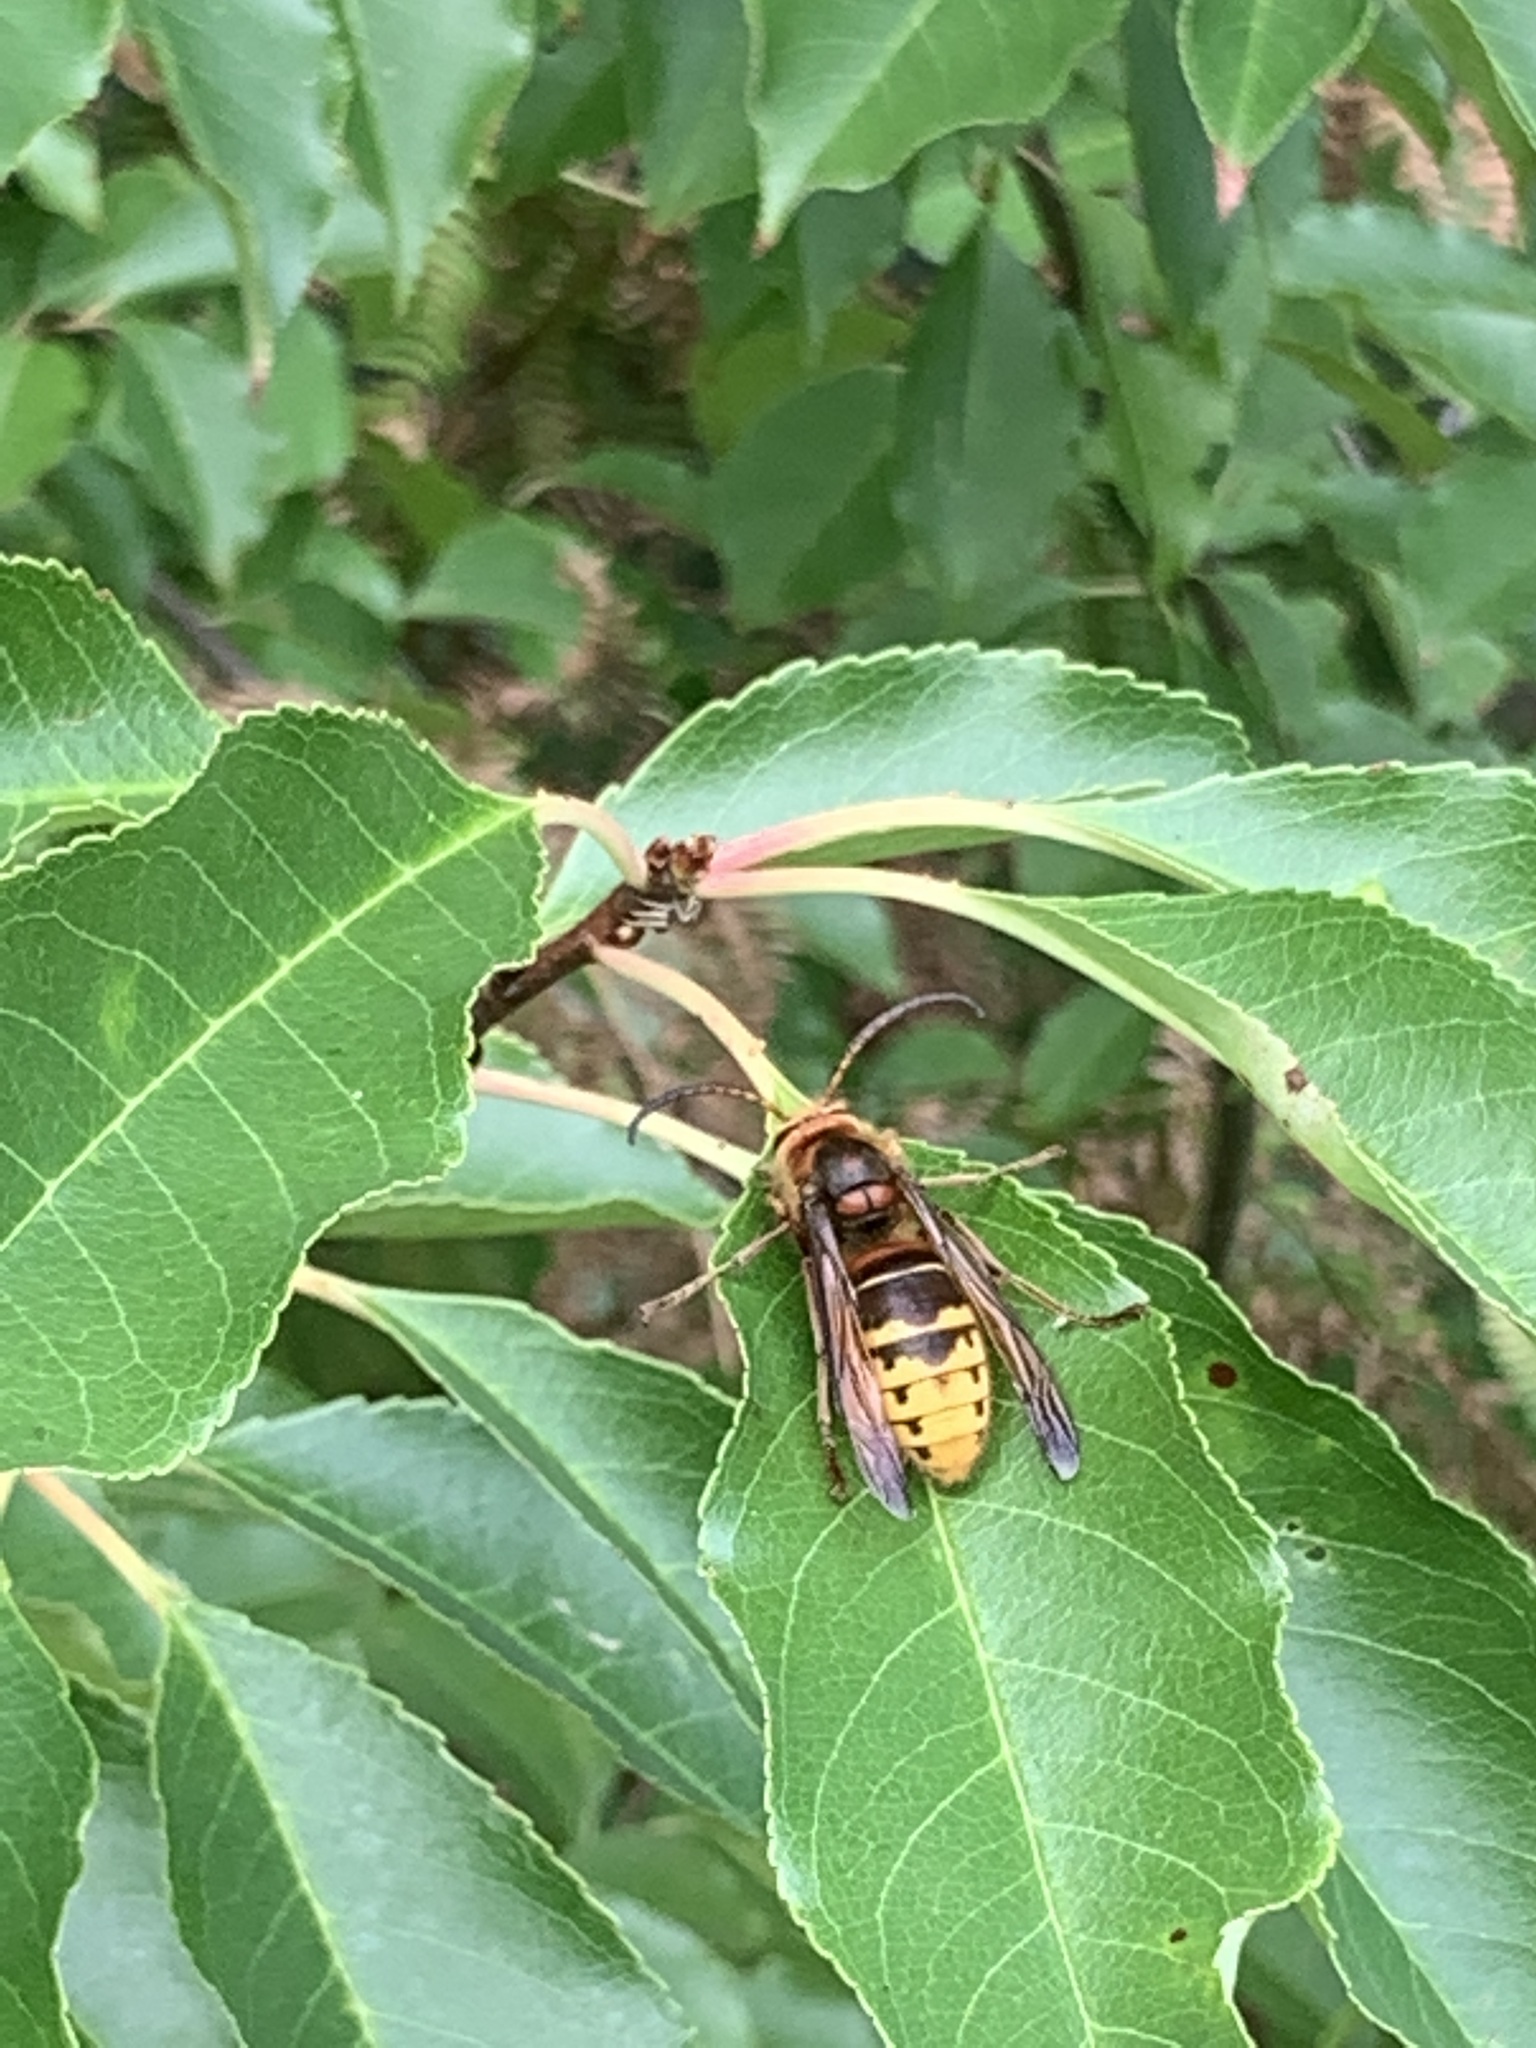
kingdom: Animalia
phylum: Arthropoda
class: Insecta
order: Hymenoptera
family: Vespidae
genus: Vespa
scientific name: Vespa crabro
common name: Hornet
